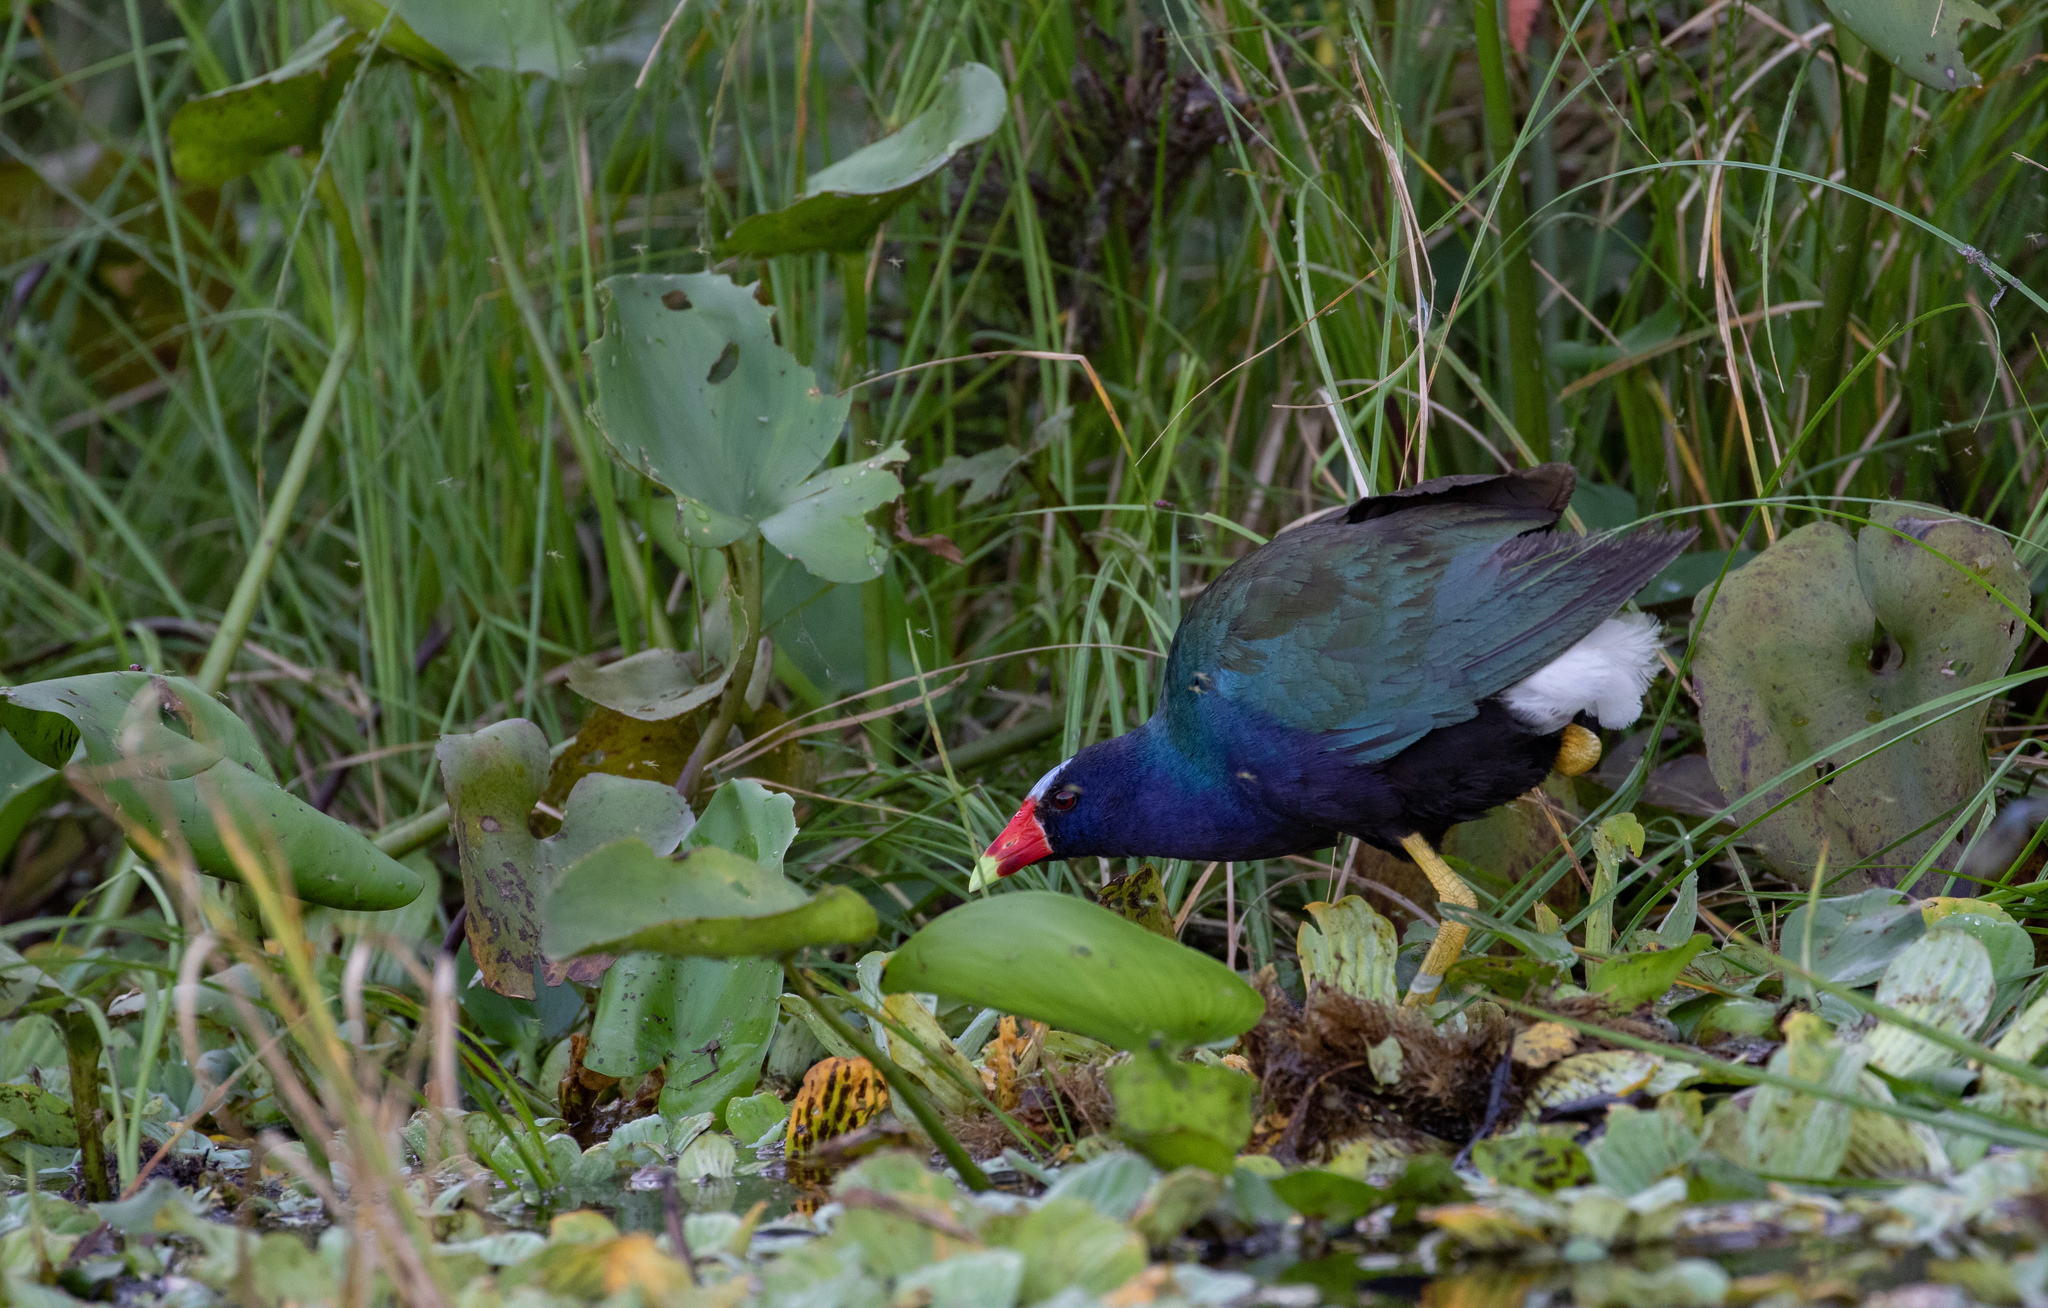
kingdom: Animalia
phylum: Chordata
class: Aves
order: Gruiformes
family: Rallidae
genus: Porphyrio
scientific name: Porphyrio martinica
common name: Purple gallinule
